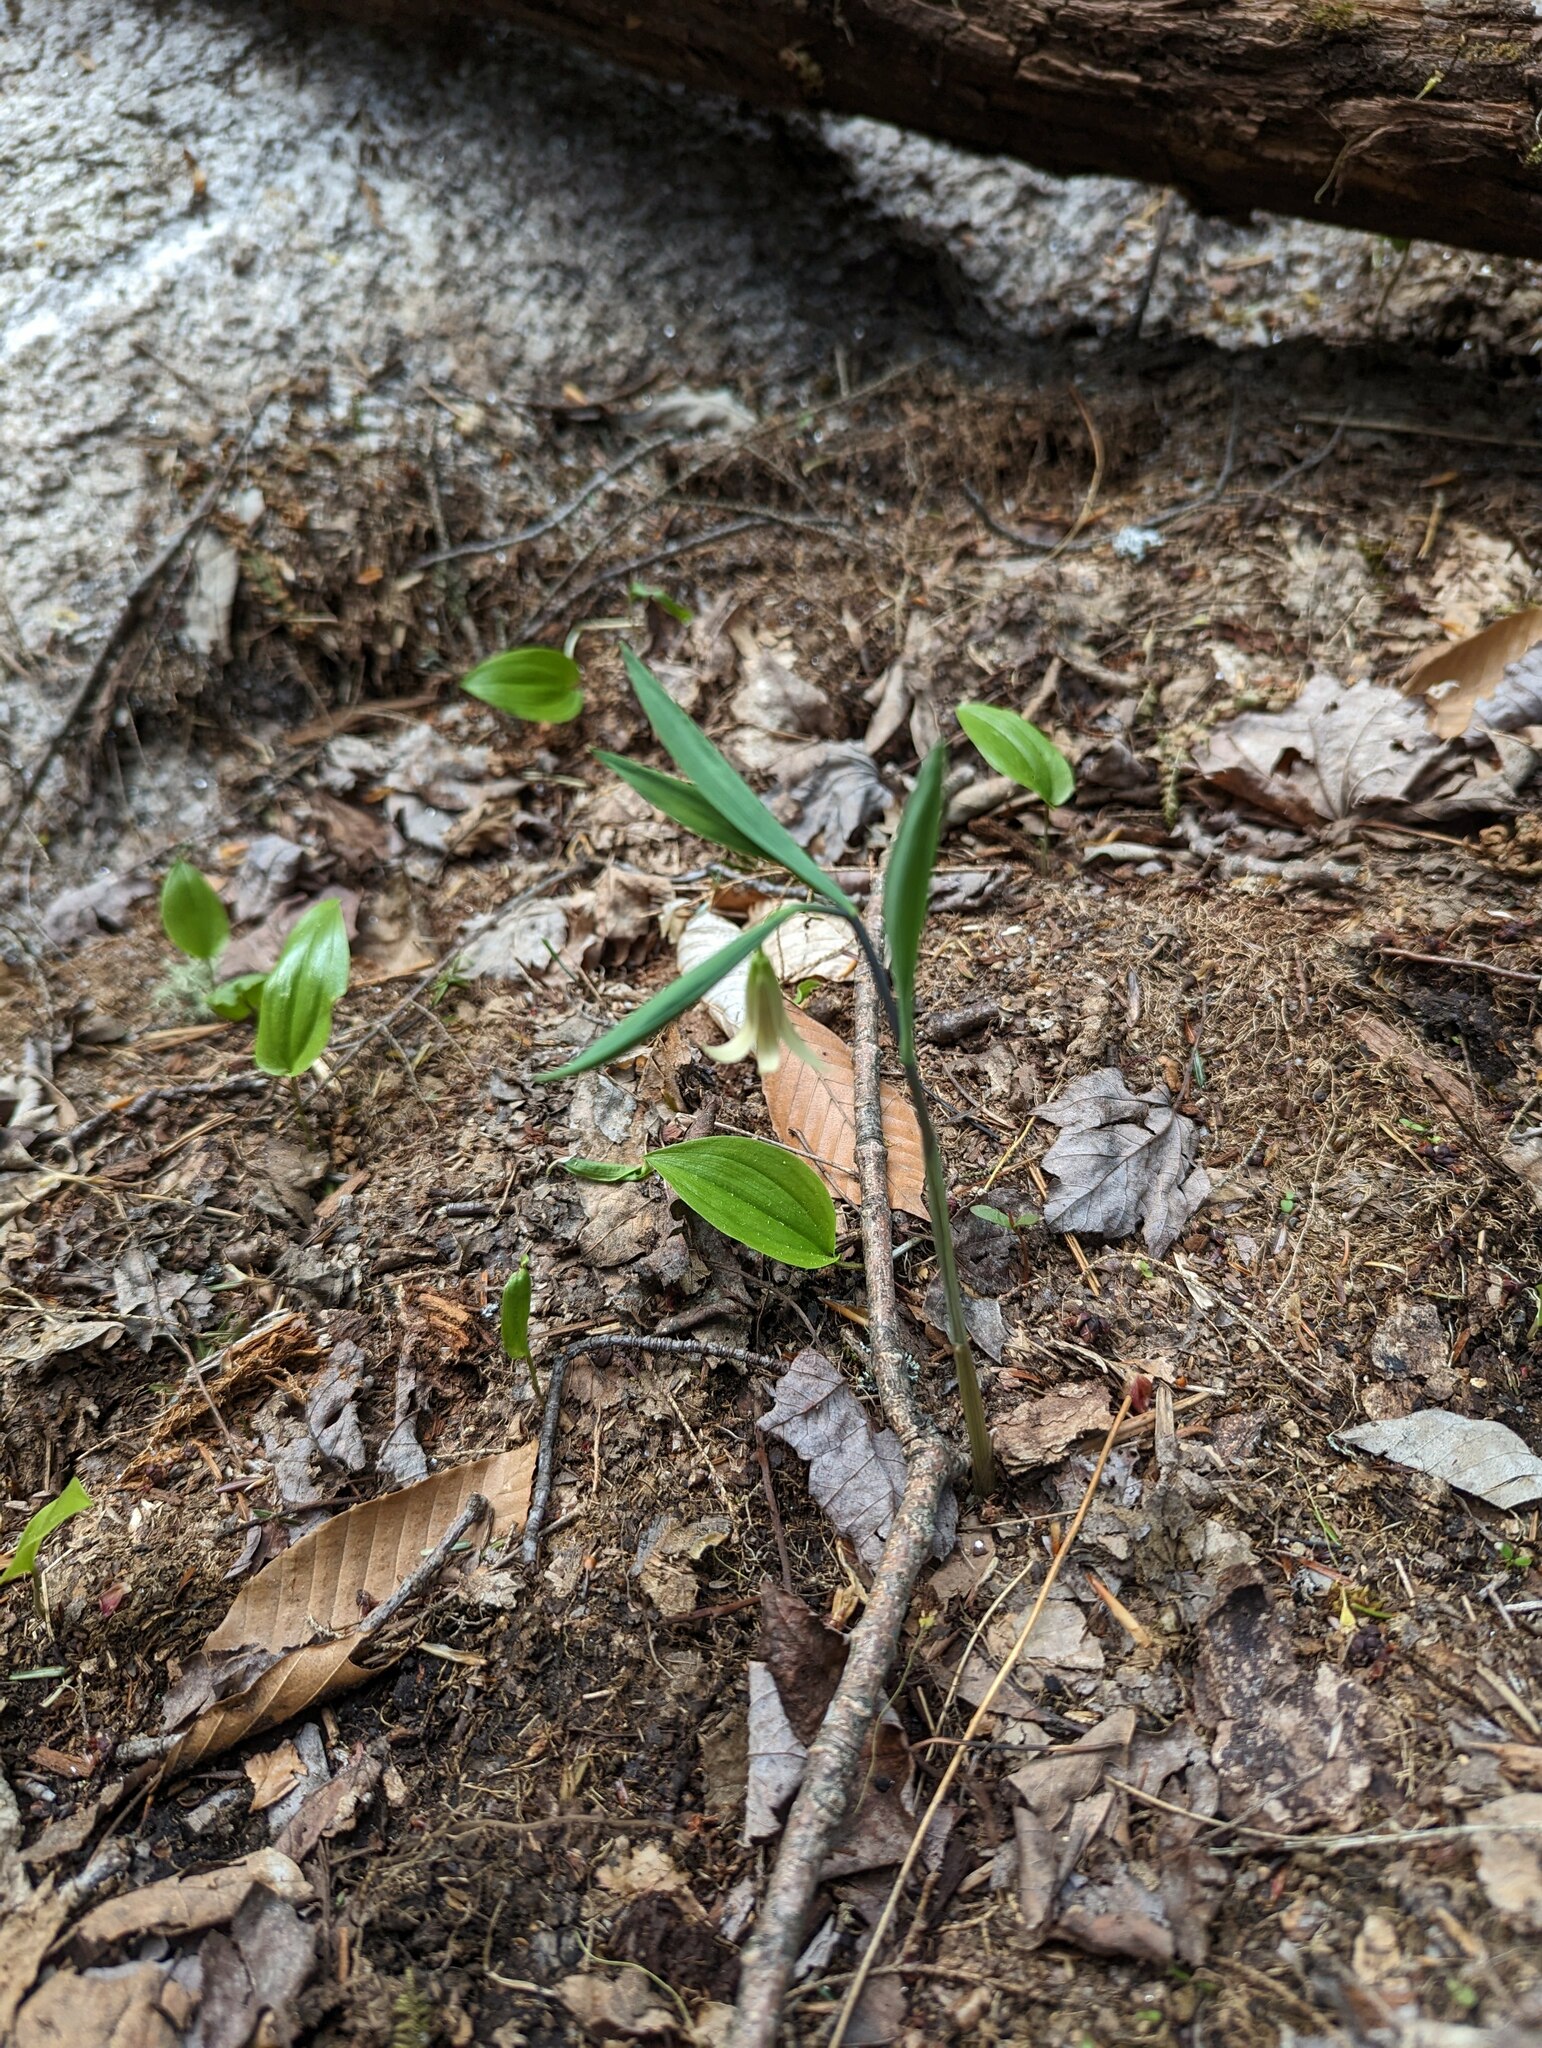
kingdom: Plantae
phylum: Tracheophyta
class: Liliopsida
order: Liliales
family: Colchicaceae
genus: Uvularia
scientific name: Uvularia sessilifolia
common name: Straw-lily
